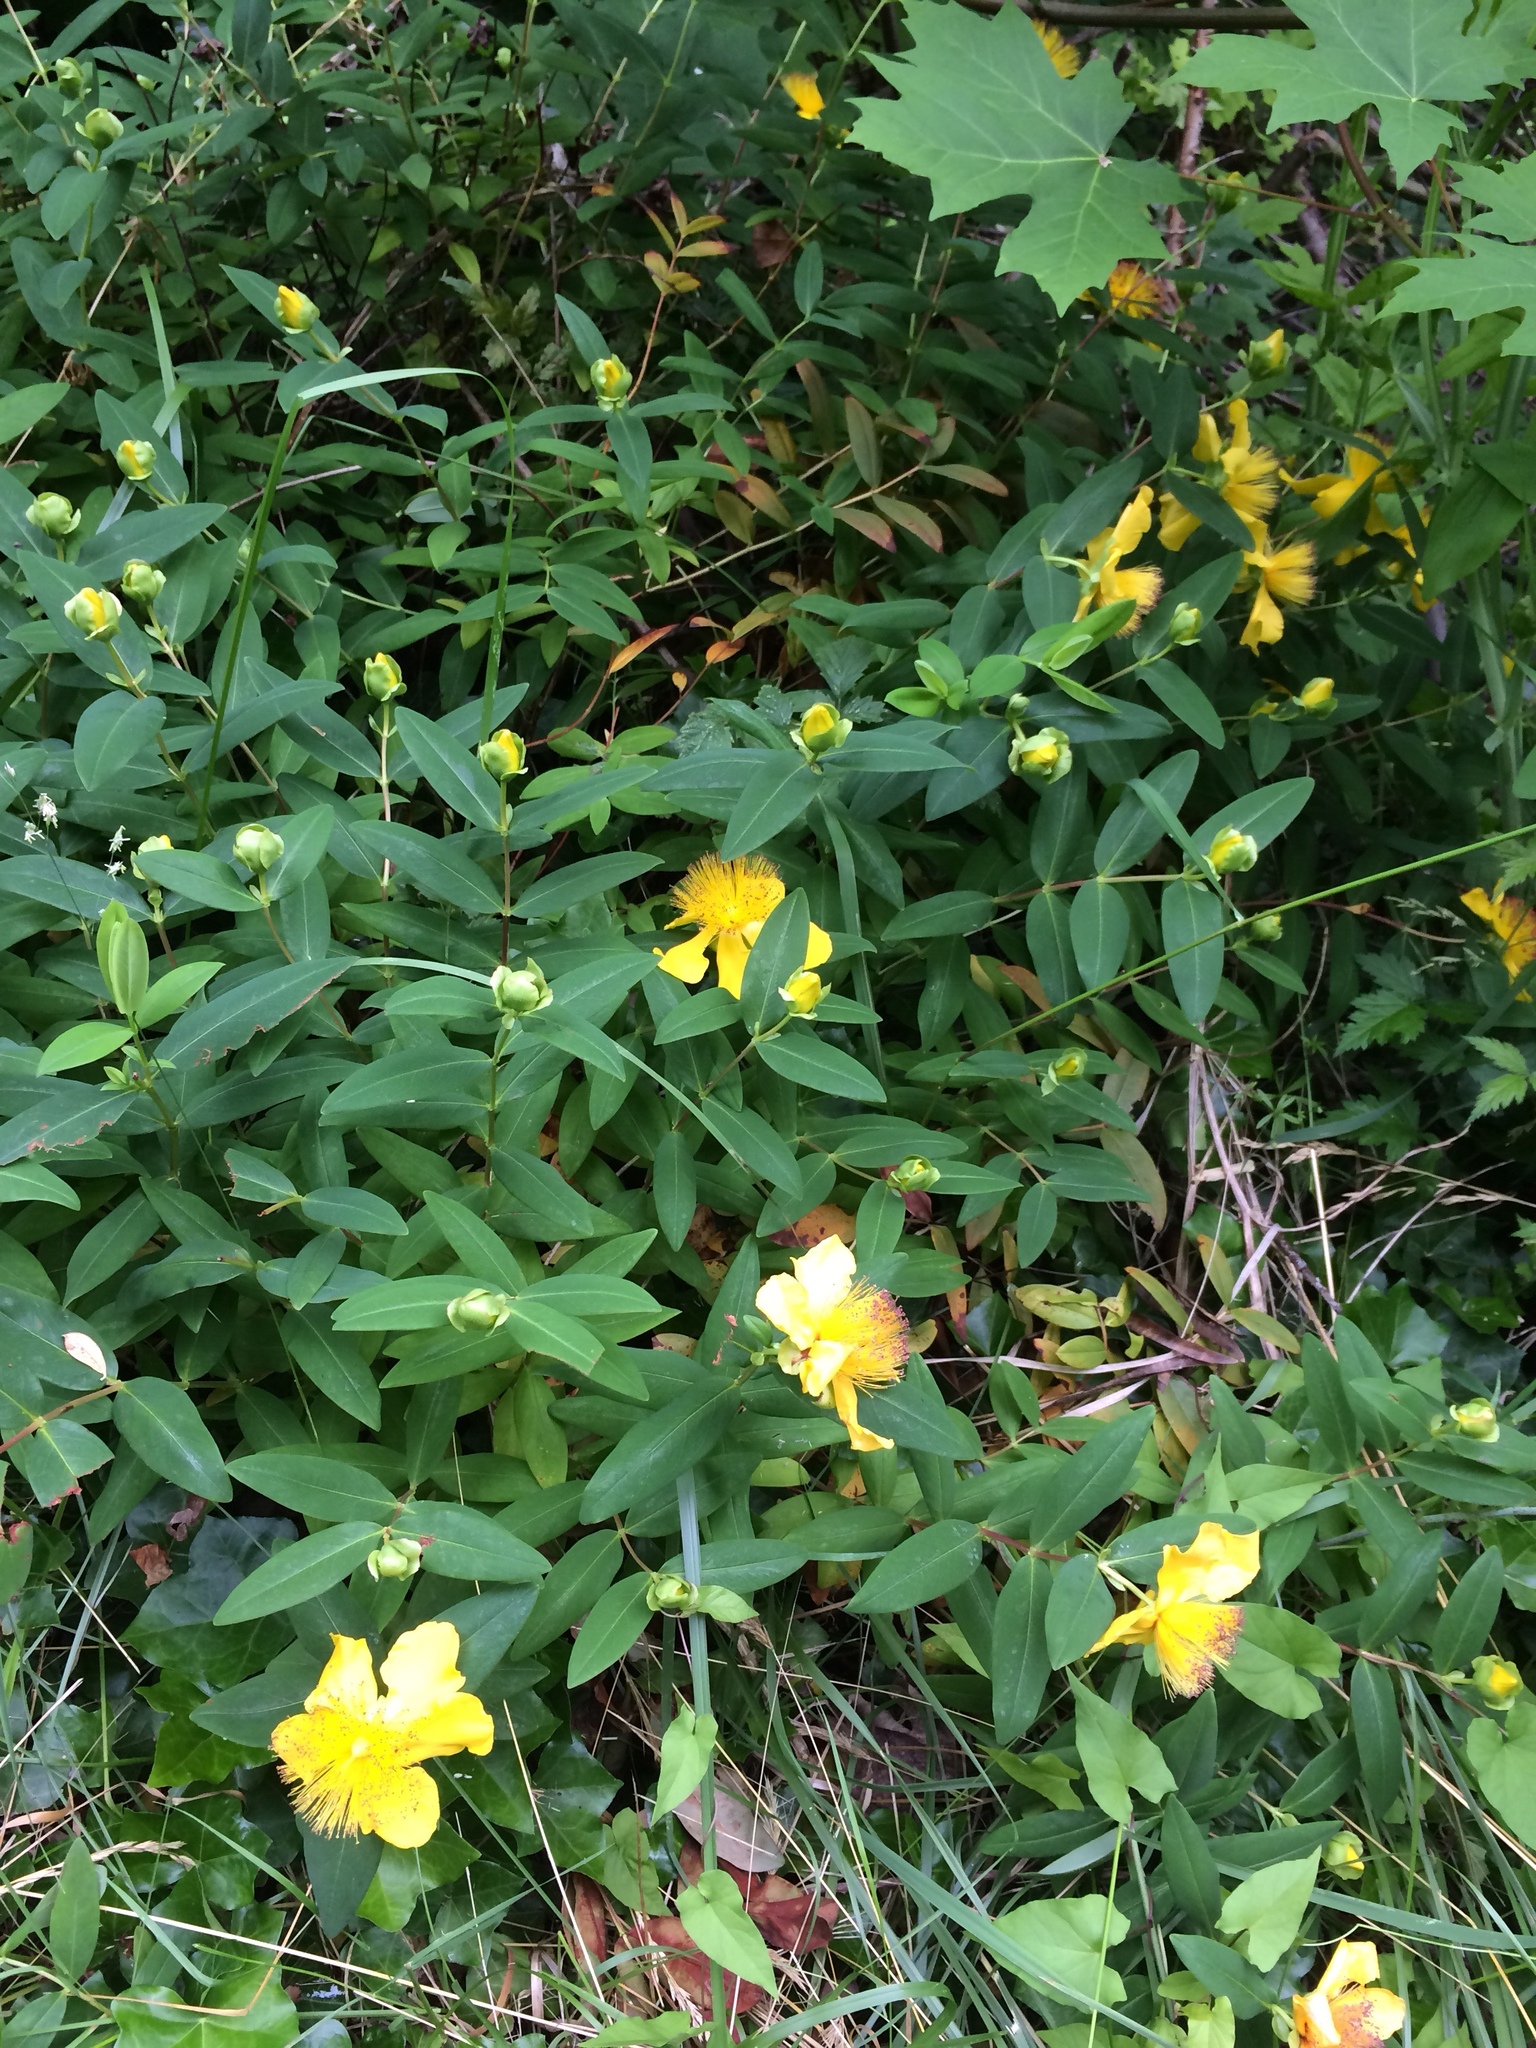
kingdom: Plantae
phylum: Tracheophyta
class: Magnoliopsida
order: Malpighiales
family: Hypericaceae
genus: Hypericum
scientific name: Hypericum calycinum
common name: Rose-of-sharon
